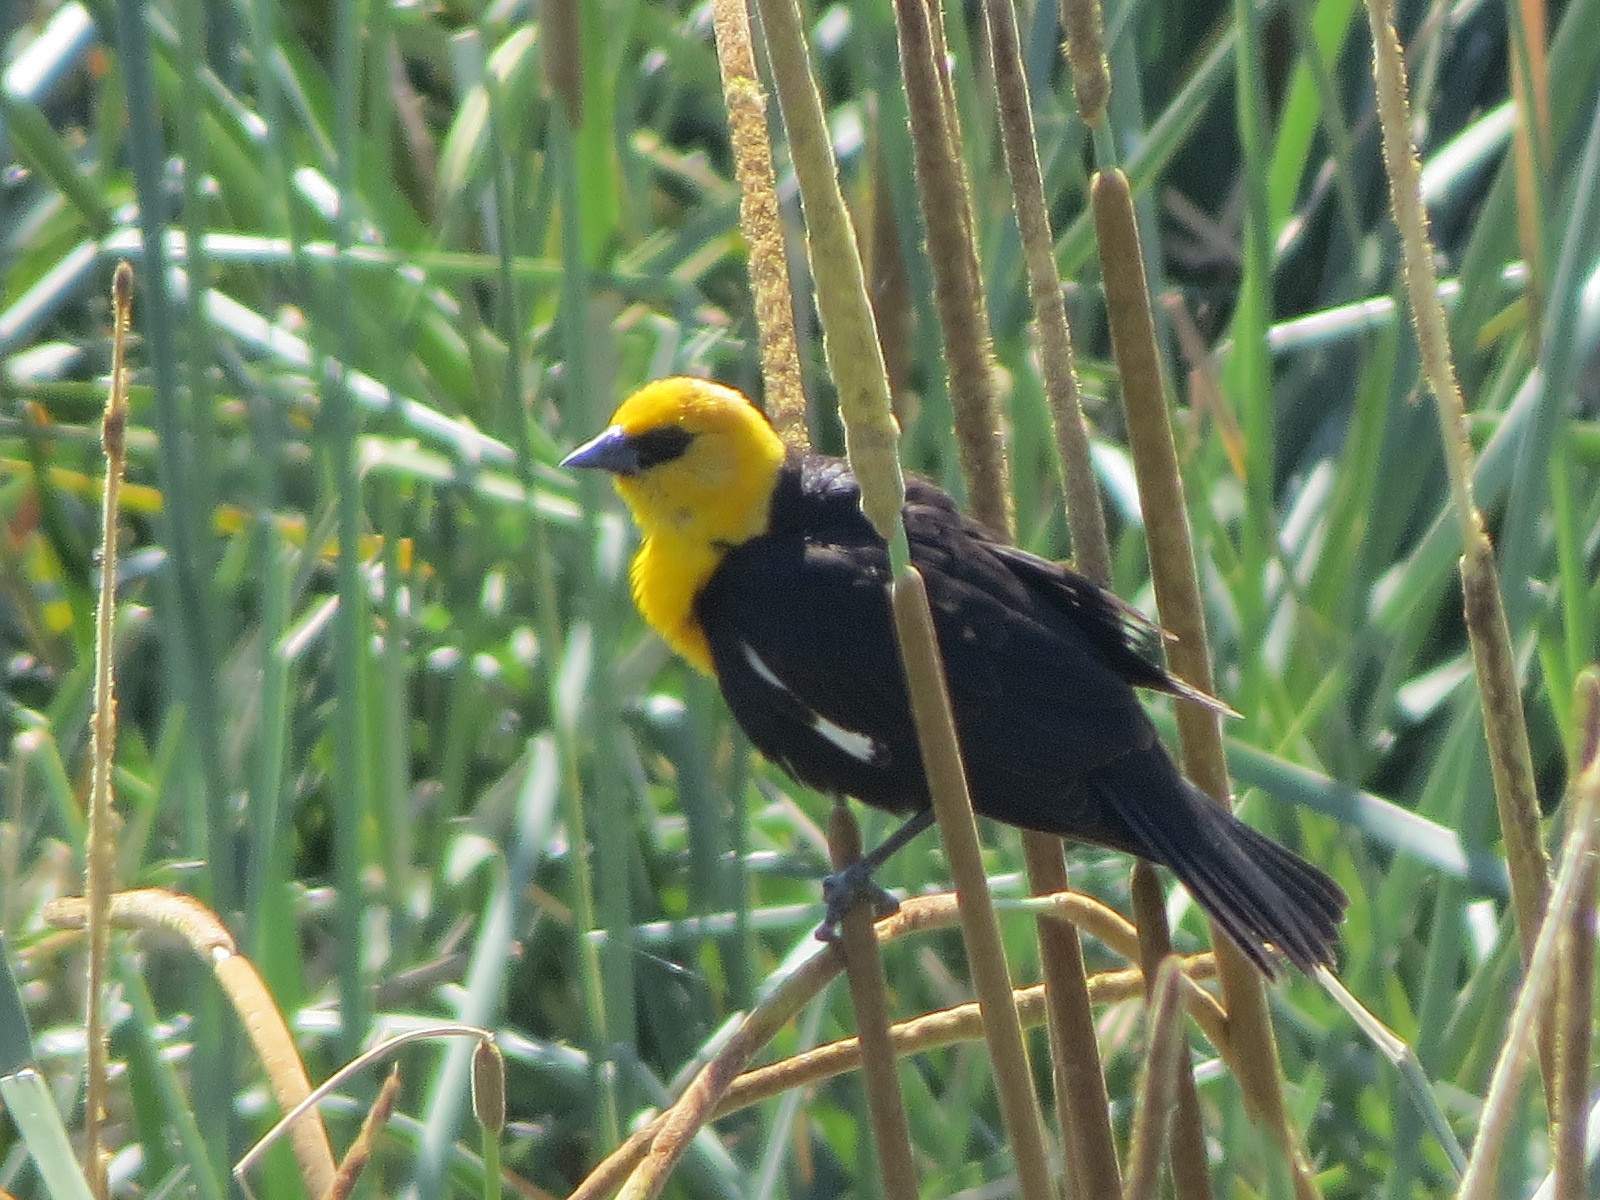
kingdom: Animalia
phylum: Chordata
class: Aves
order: Passeriformes
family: Icteridae
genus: Xanthocephalus
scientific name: Xanthocephalus xanthocephalus
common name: Yellow-headed blackbird
